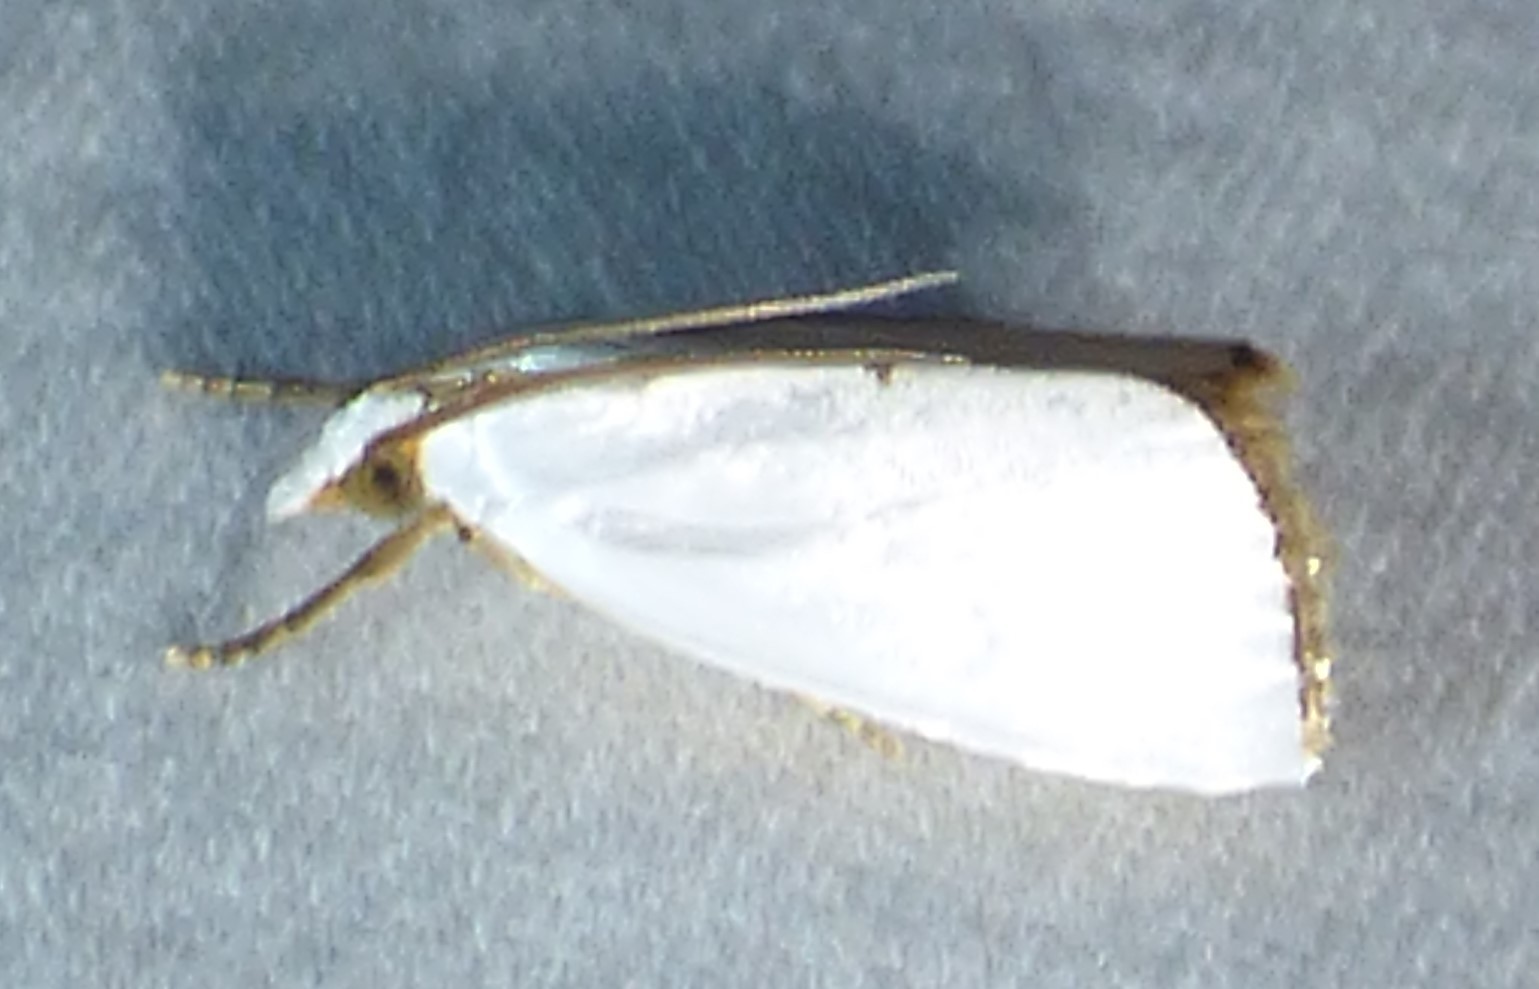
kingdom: Animalia
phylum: Arthropoda
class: Insecta
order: Lepidoptera
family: Crambidae
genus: Argyria
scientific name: Argyria nivalis
